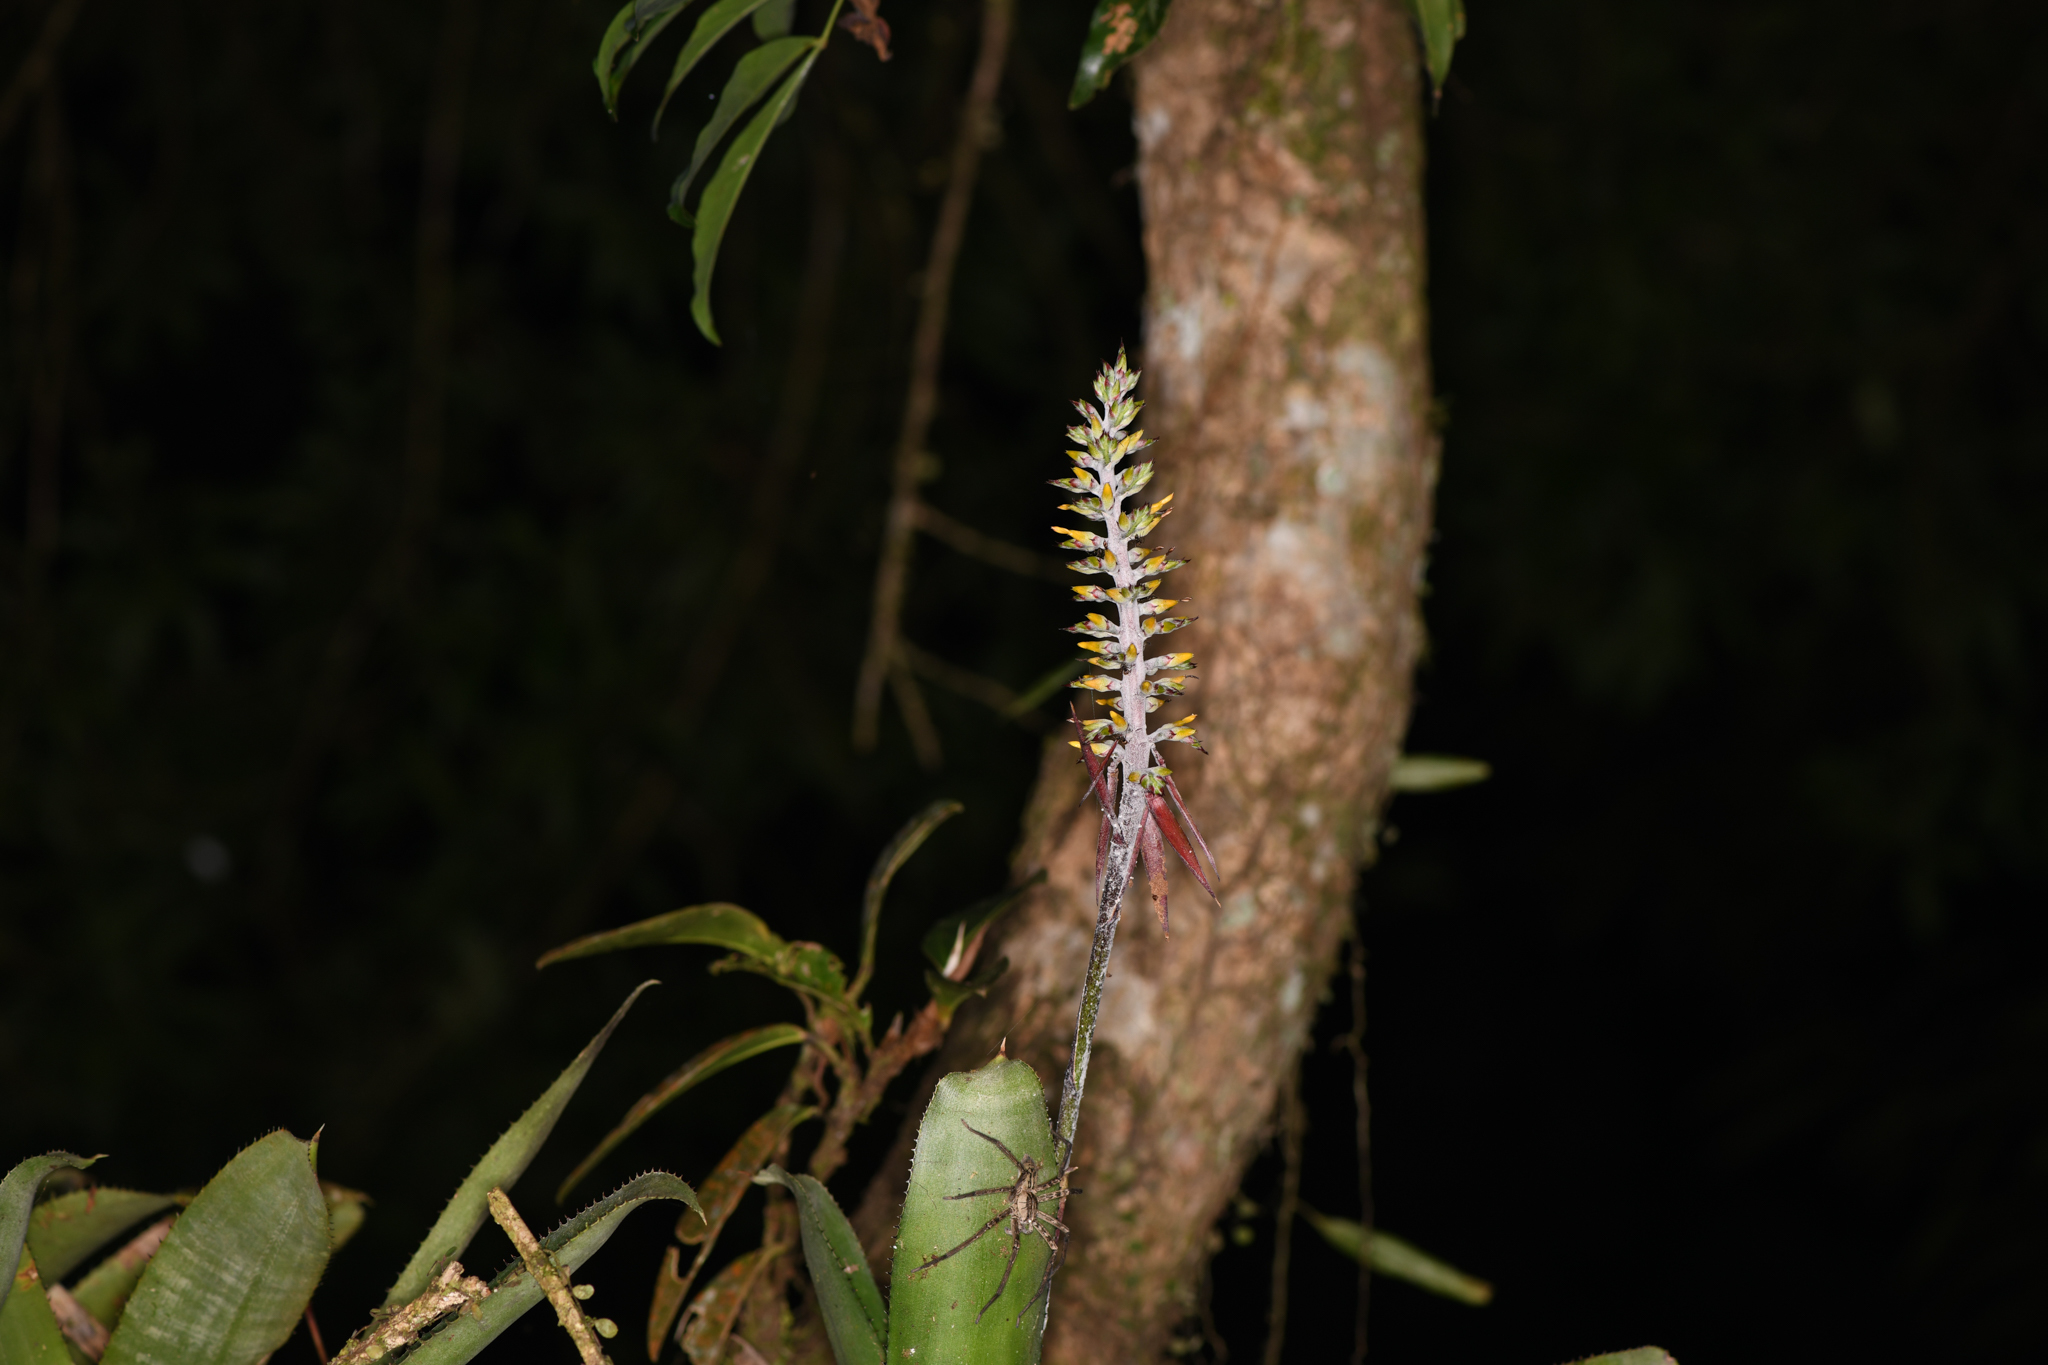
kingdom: Plantae
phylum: Tracheophyta
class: Liliopsida
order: Poales
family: Bromeliaceae
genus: Aechmea
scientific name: Aechmea angustifolia
